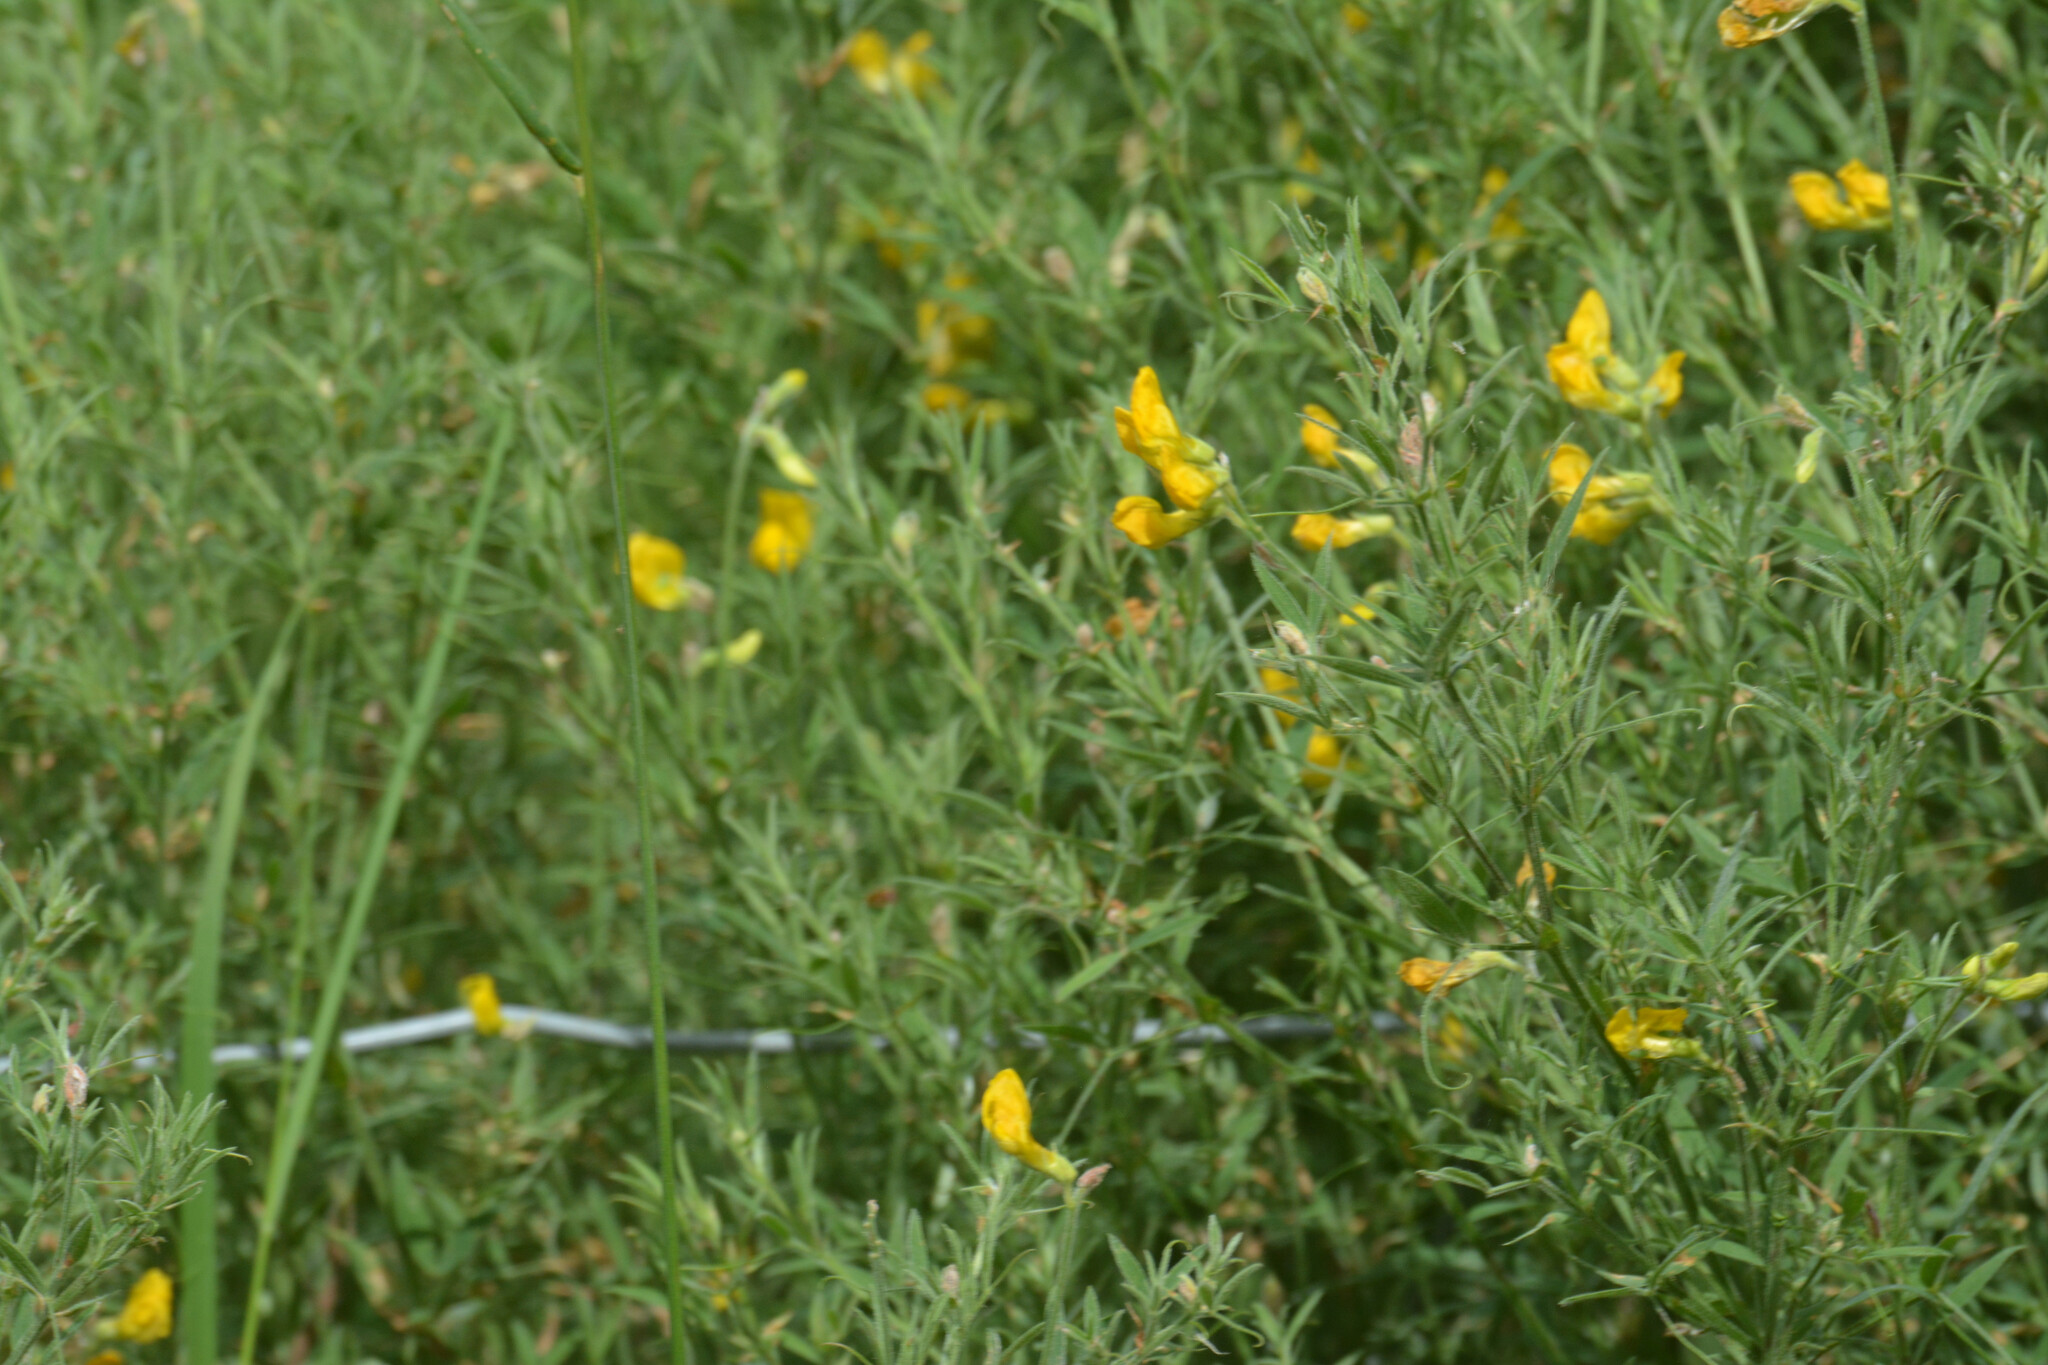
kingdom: Plantae
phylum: Tracheophyta
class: Magnoliopsida
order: Fabales
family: Fabaceae
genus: Lathyrus
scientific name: Lathyrus pratensis
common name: Meadow vetchling
